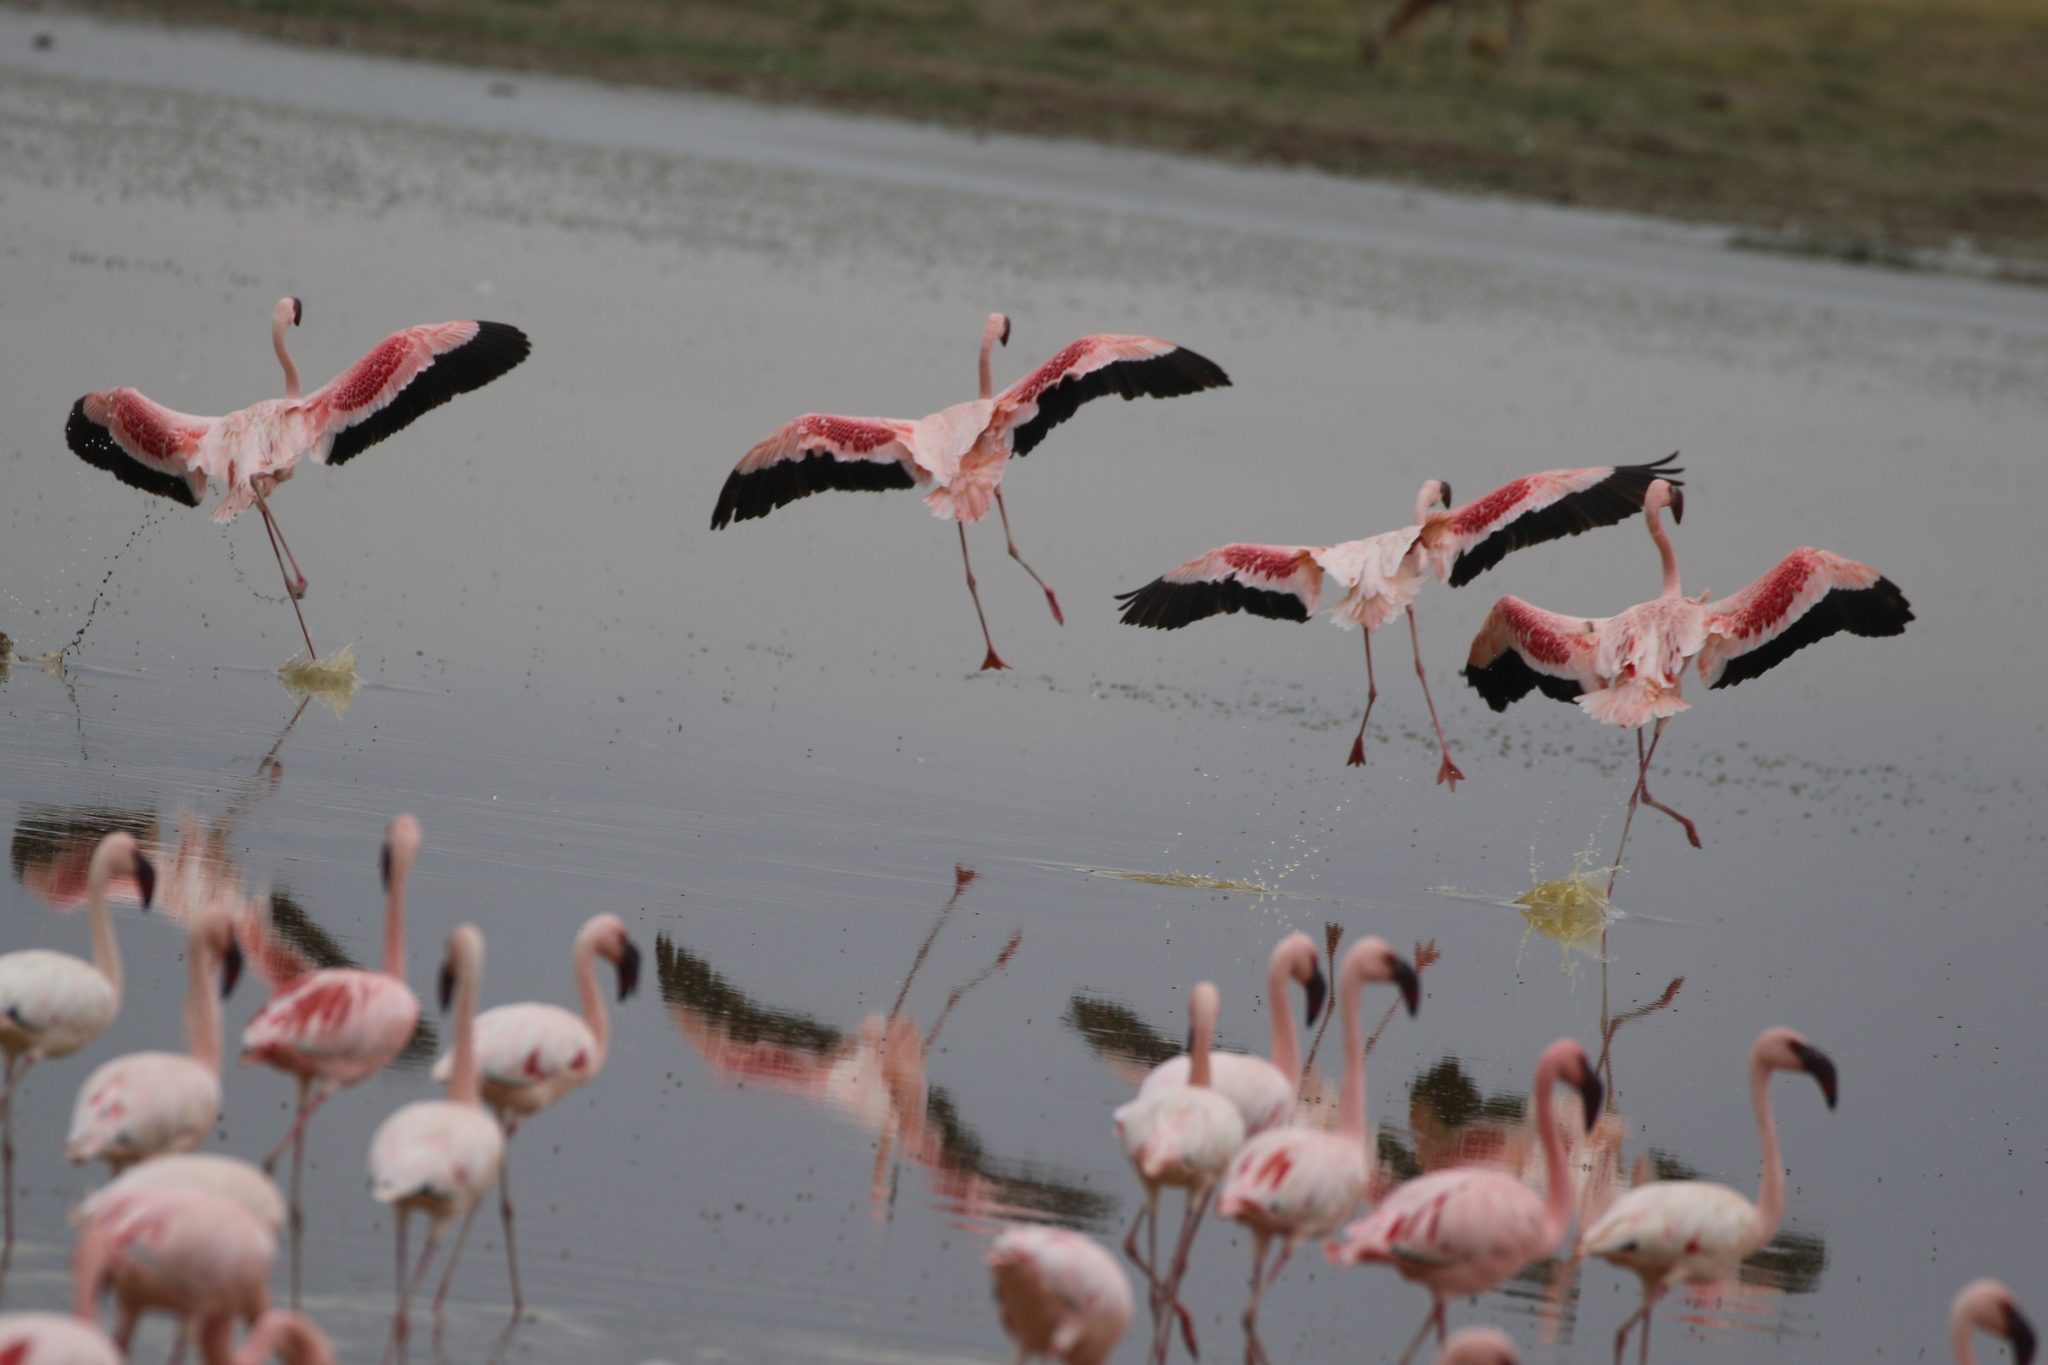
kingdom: Animalia
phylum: Chordata
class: Aves
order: Phoenicopteriformes
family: Phoenicopteridae
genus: Phoeniconaias
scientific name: Phoeniconaias minor
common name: Lesser flamingo
